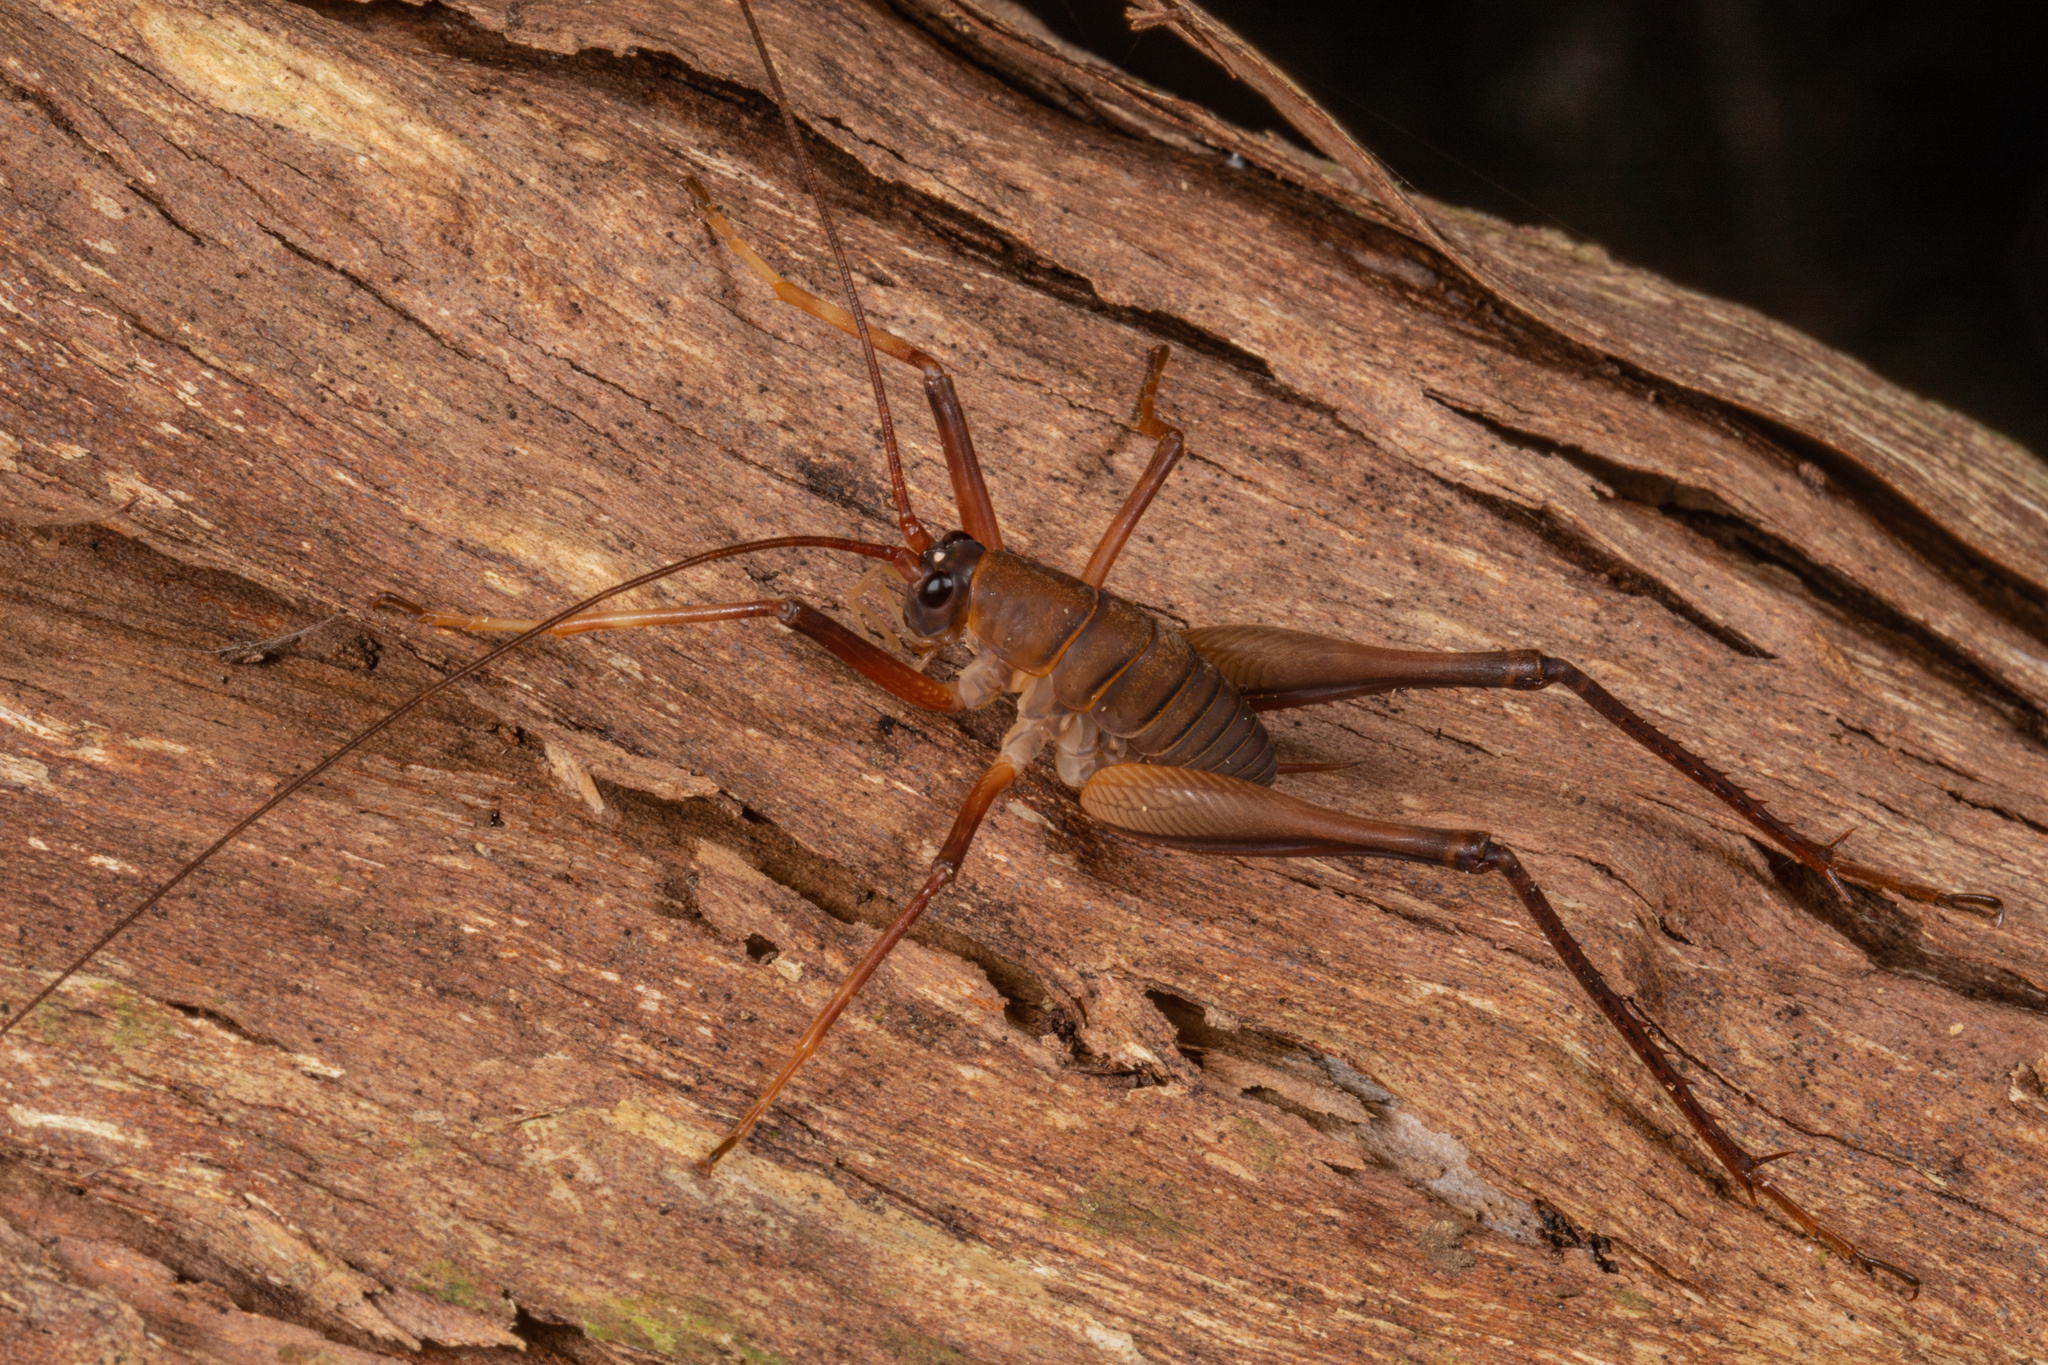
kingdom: Animalia
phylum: Arthropoda
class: Insecta
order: Orthoptera
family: Rhaphidophoridae
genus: Pachyrhamma
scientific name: Pachyrhamma longipes
